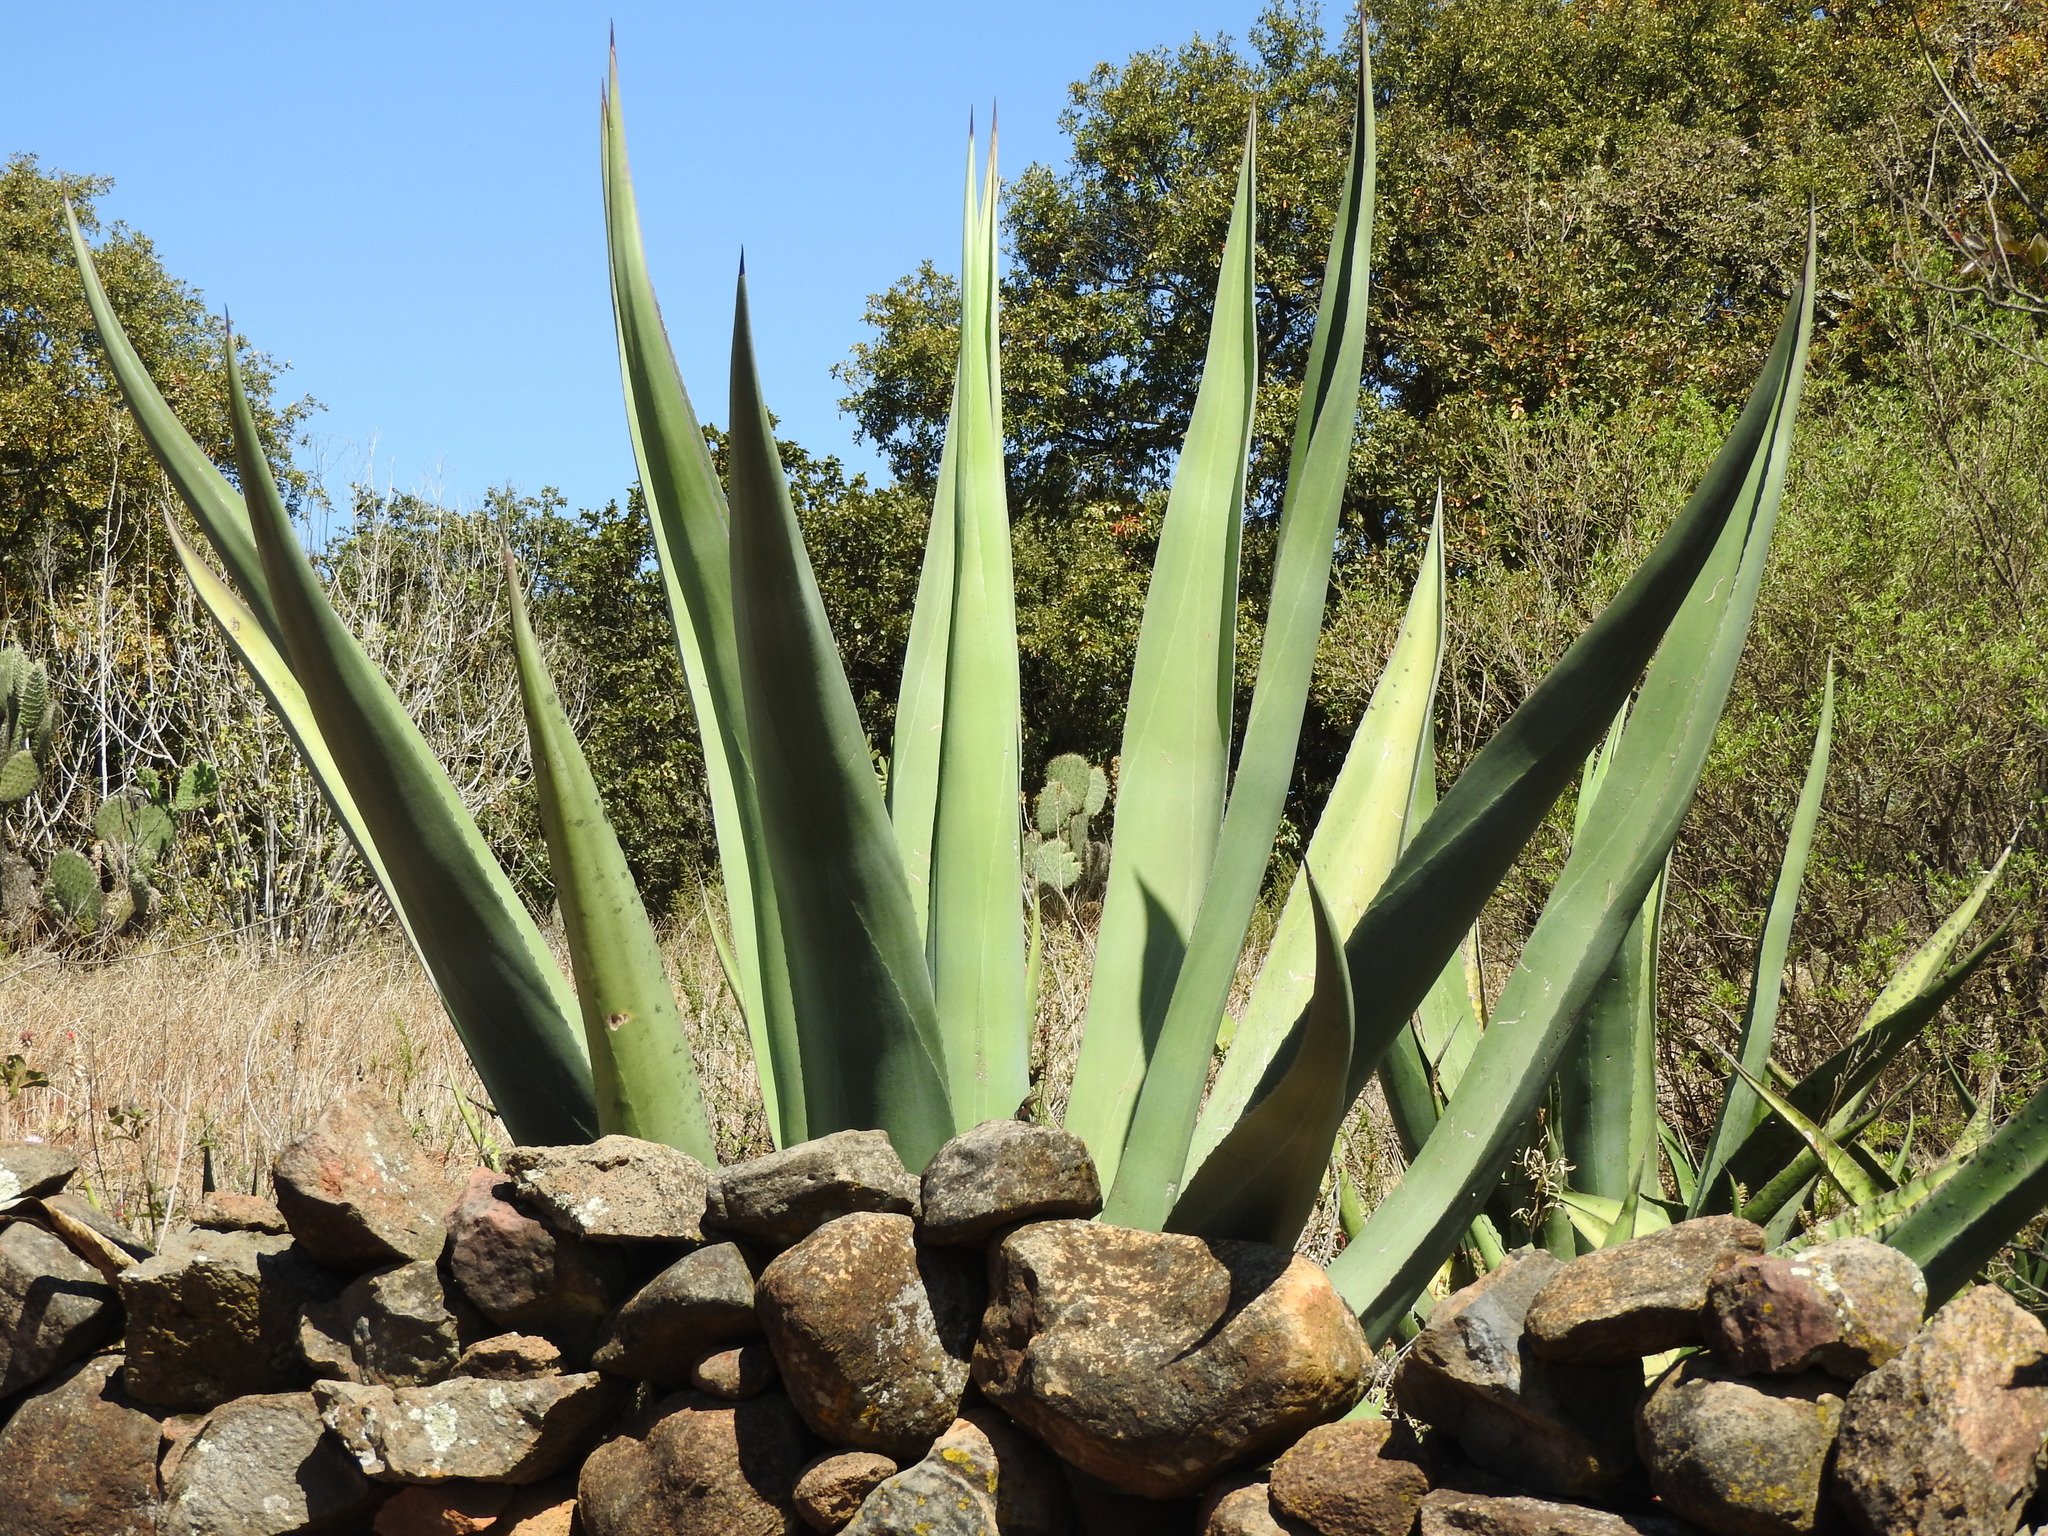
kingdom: Plantae
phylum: Tracheophyta
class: Liliopsida
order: Asparagales
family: Asparagaceae
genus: Agave
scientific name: Agave salmiana
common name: Pulque agave
